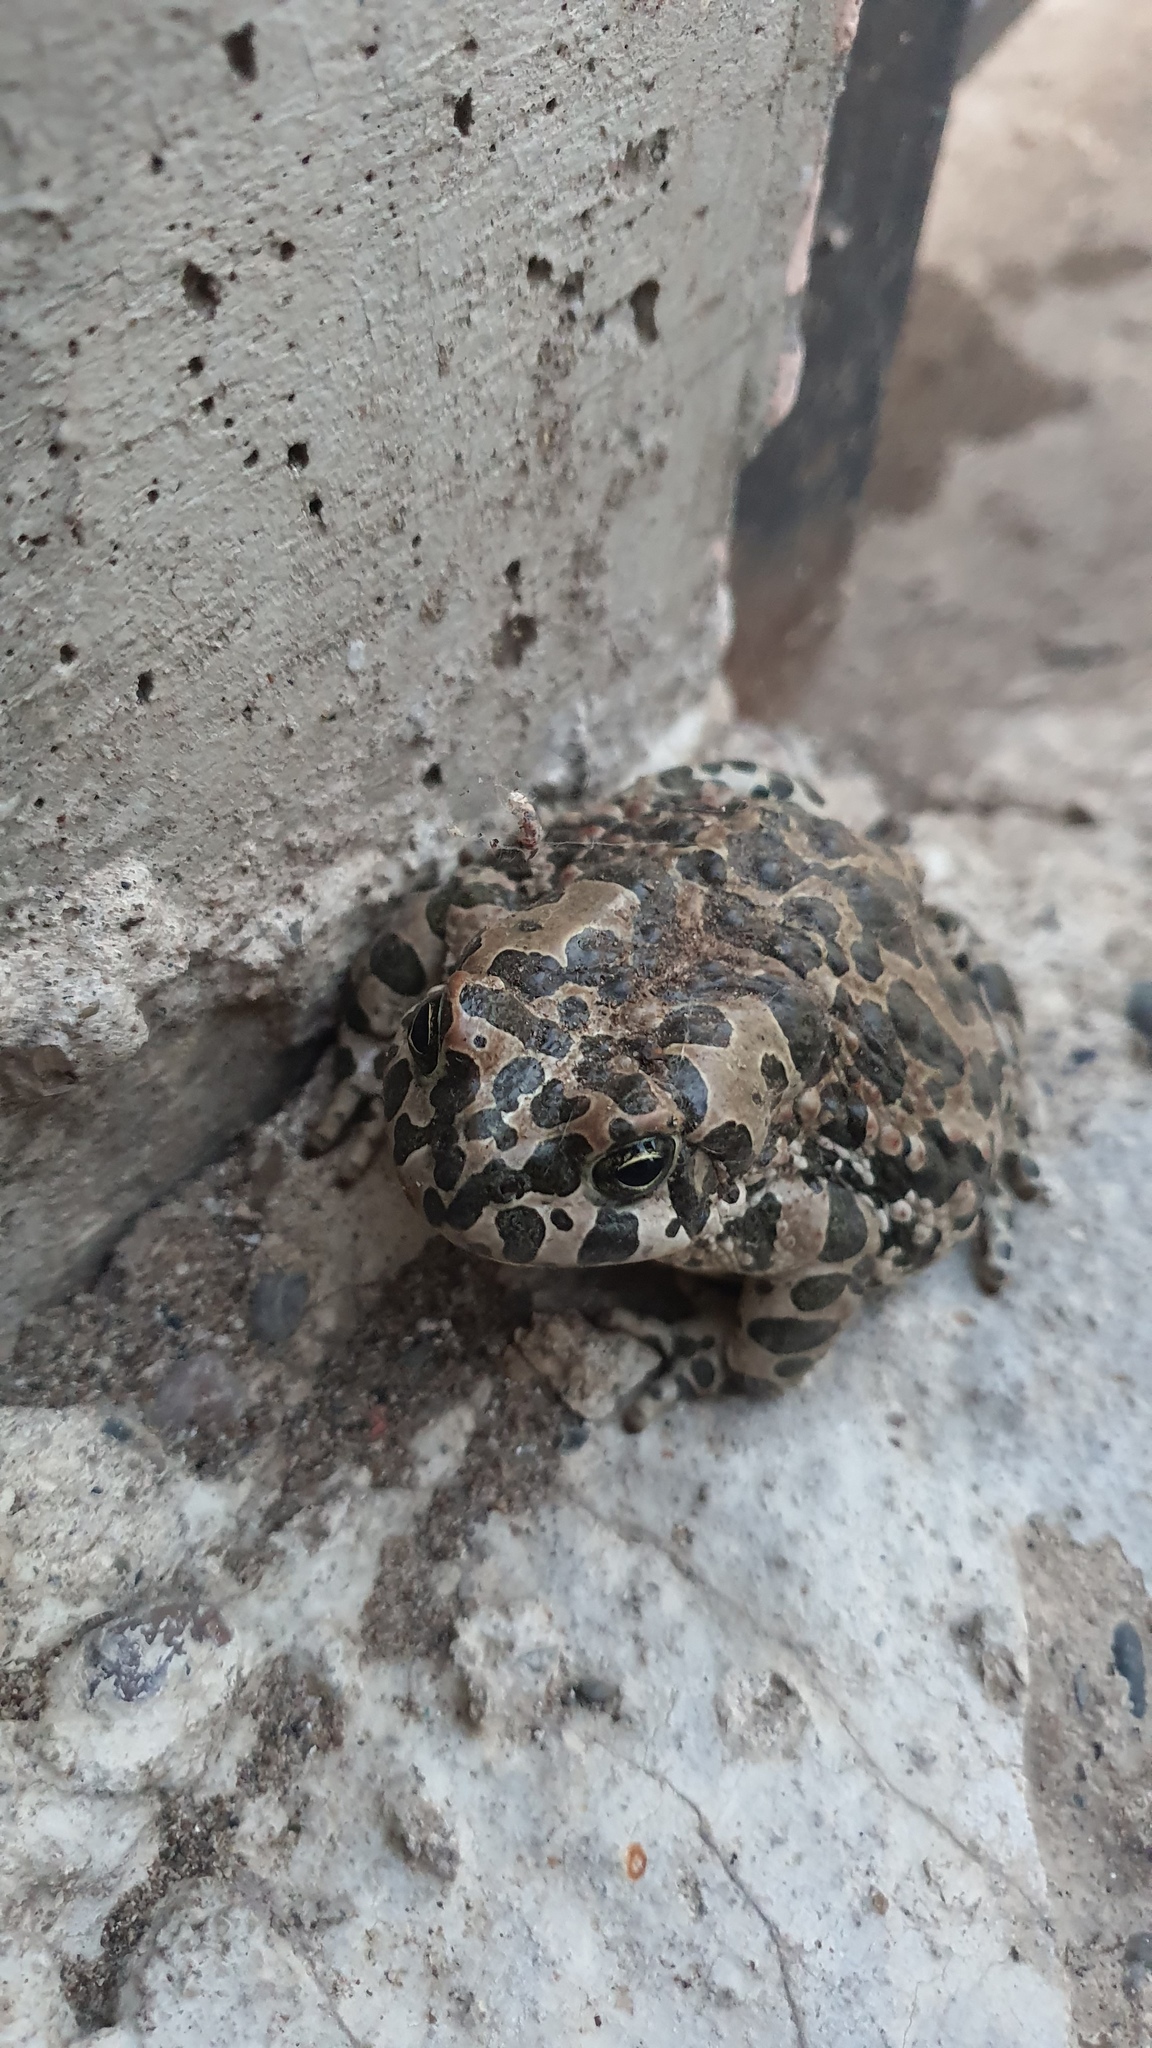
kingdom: Animalia
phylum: Chordata
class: Amphibia
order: Anura
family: Bufonidae
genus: Bufotes
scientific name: Bufotes viridis
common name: European green toad
